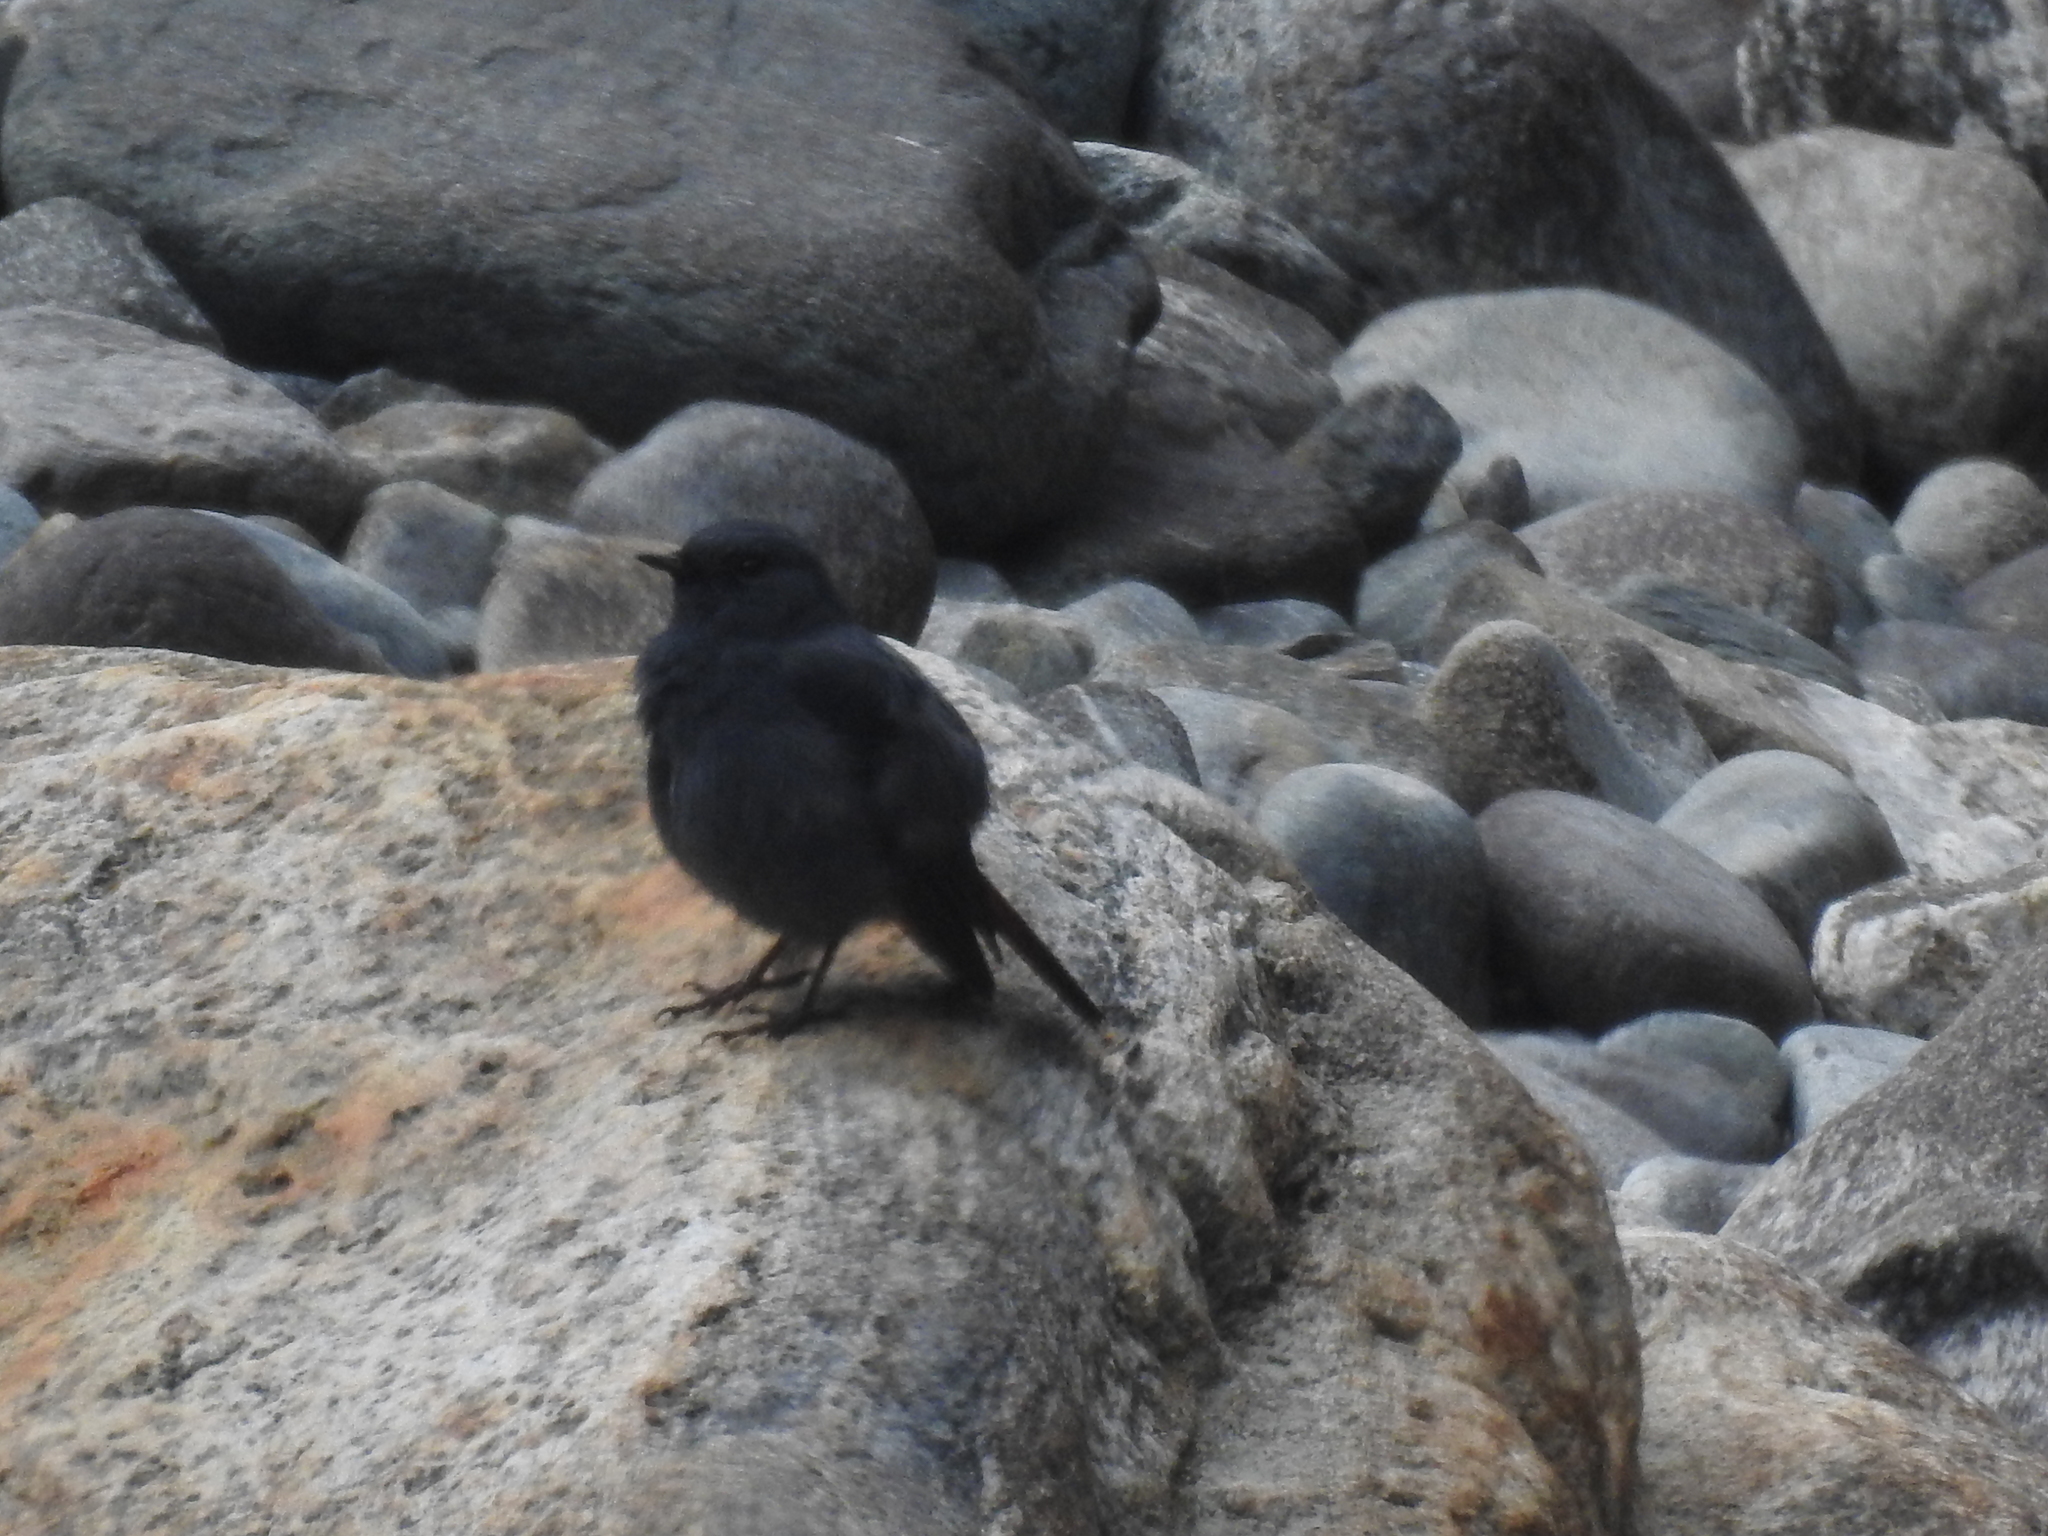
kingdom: Animalia
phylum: Chordata
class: Aves
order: Passeriformes
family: Muscicapidae
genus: Phoenicurus
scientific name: Phoenicurus fuliginosus
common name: Plumbeous water redstart
